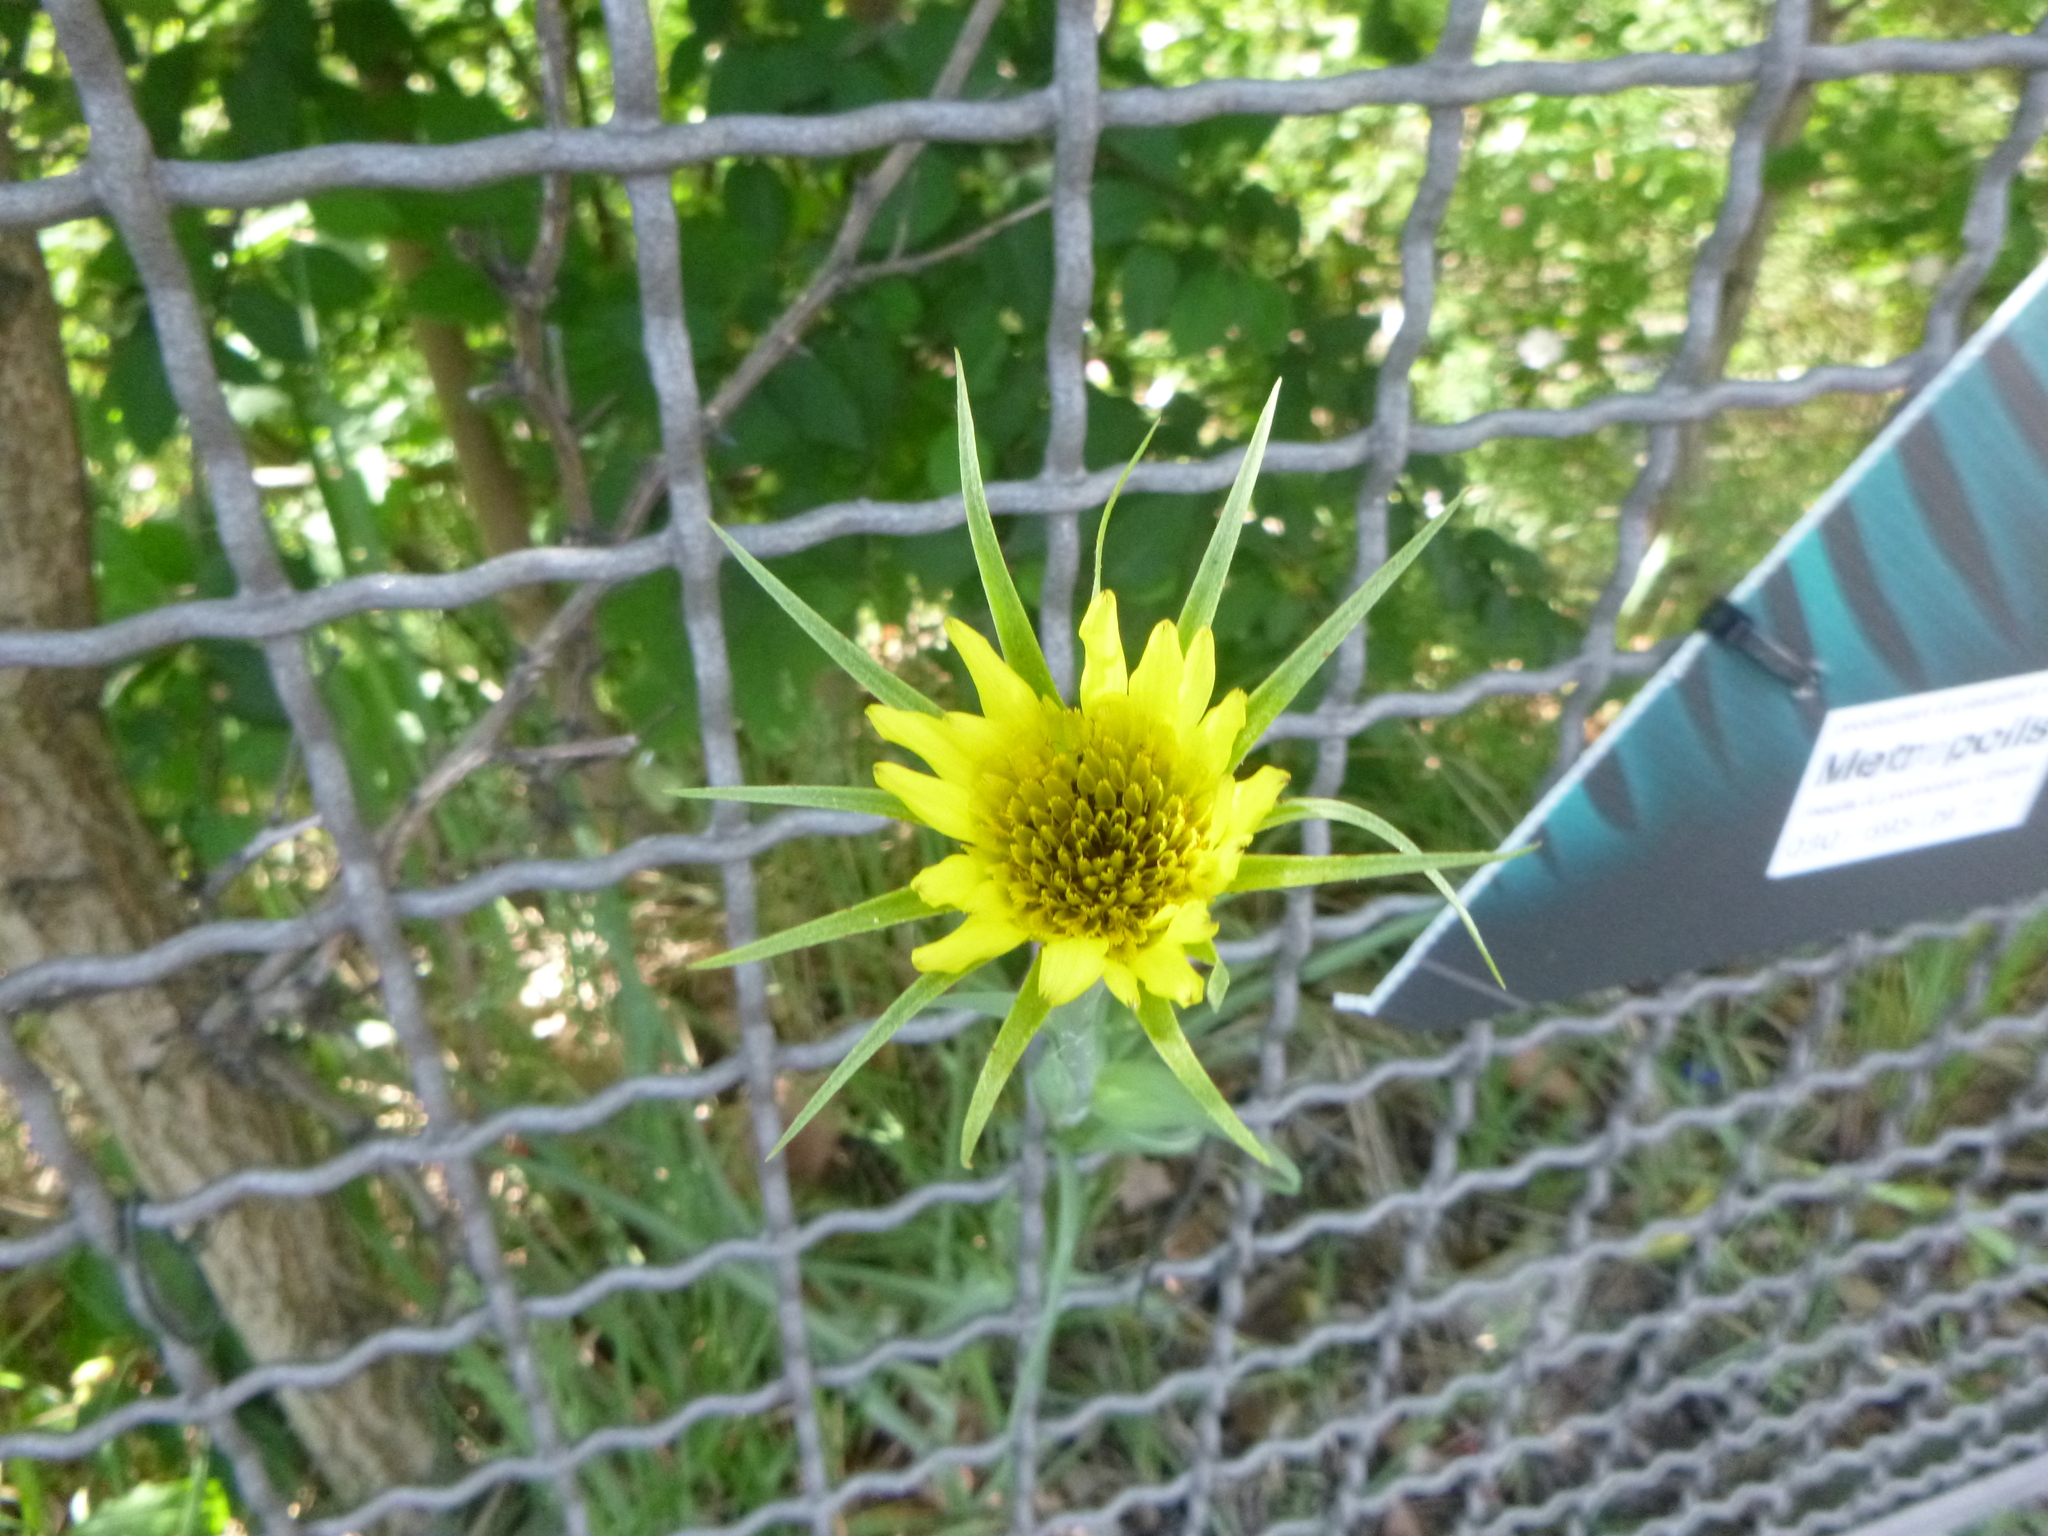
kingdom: Plantae
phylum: Tracheophyta
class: Magnoliopsida
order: Asterales
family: Asteraceae
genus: Tragopogon
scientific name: Tragopogon dubius
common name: Yellow salsify
